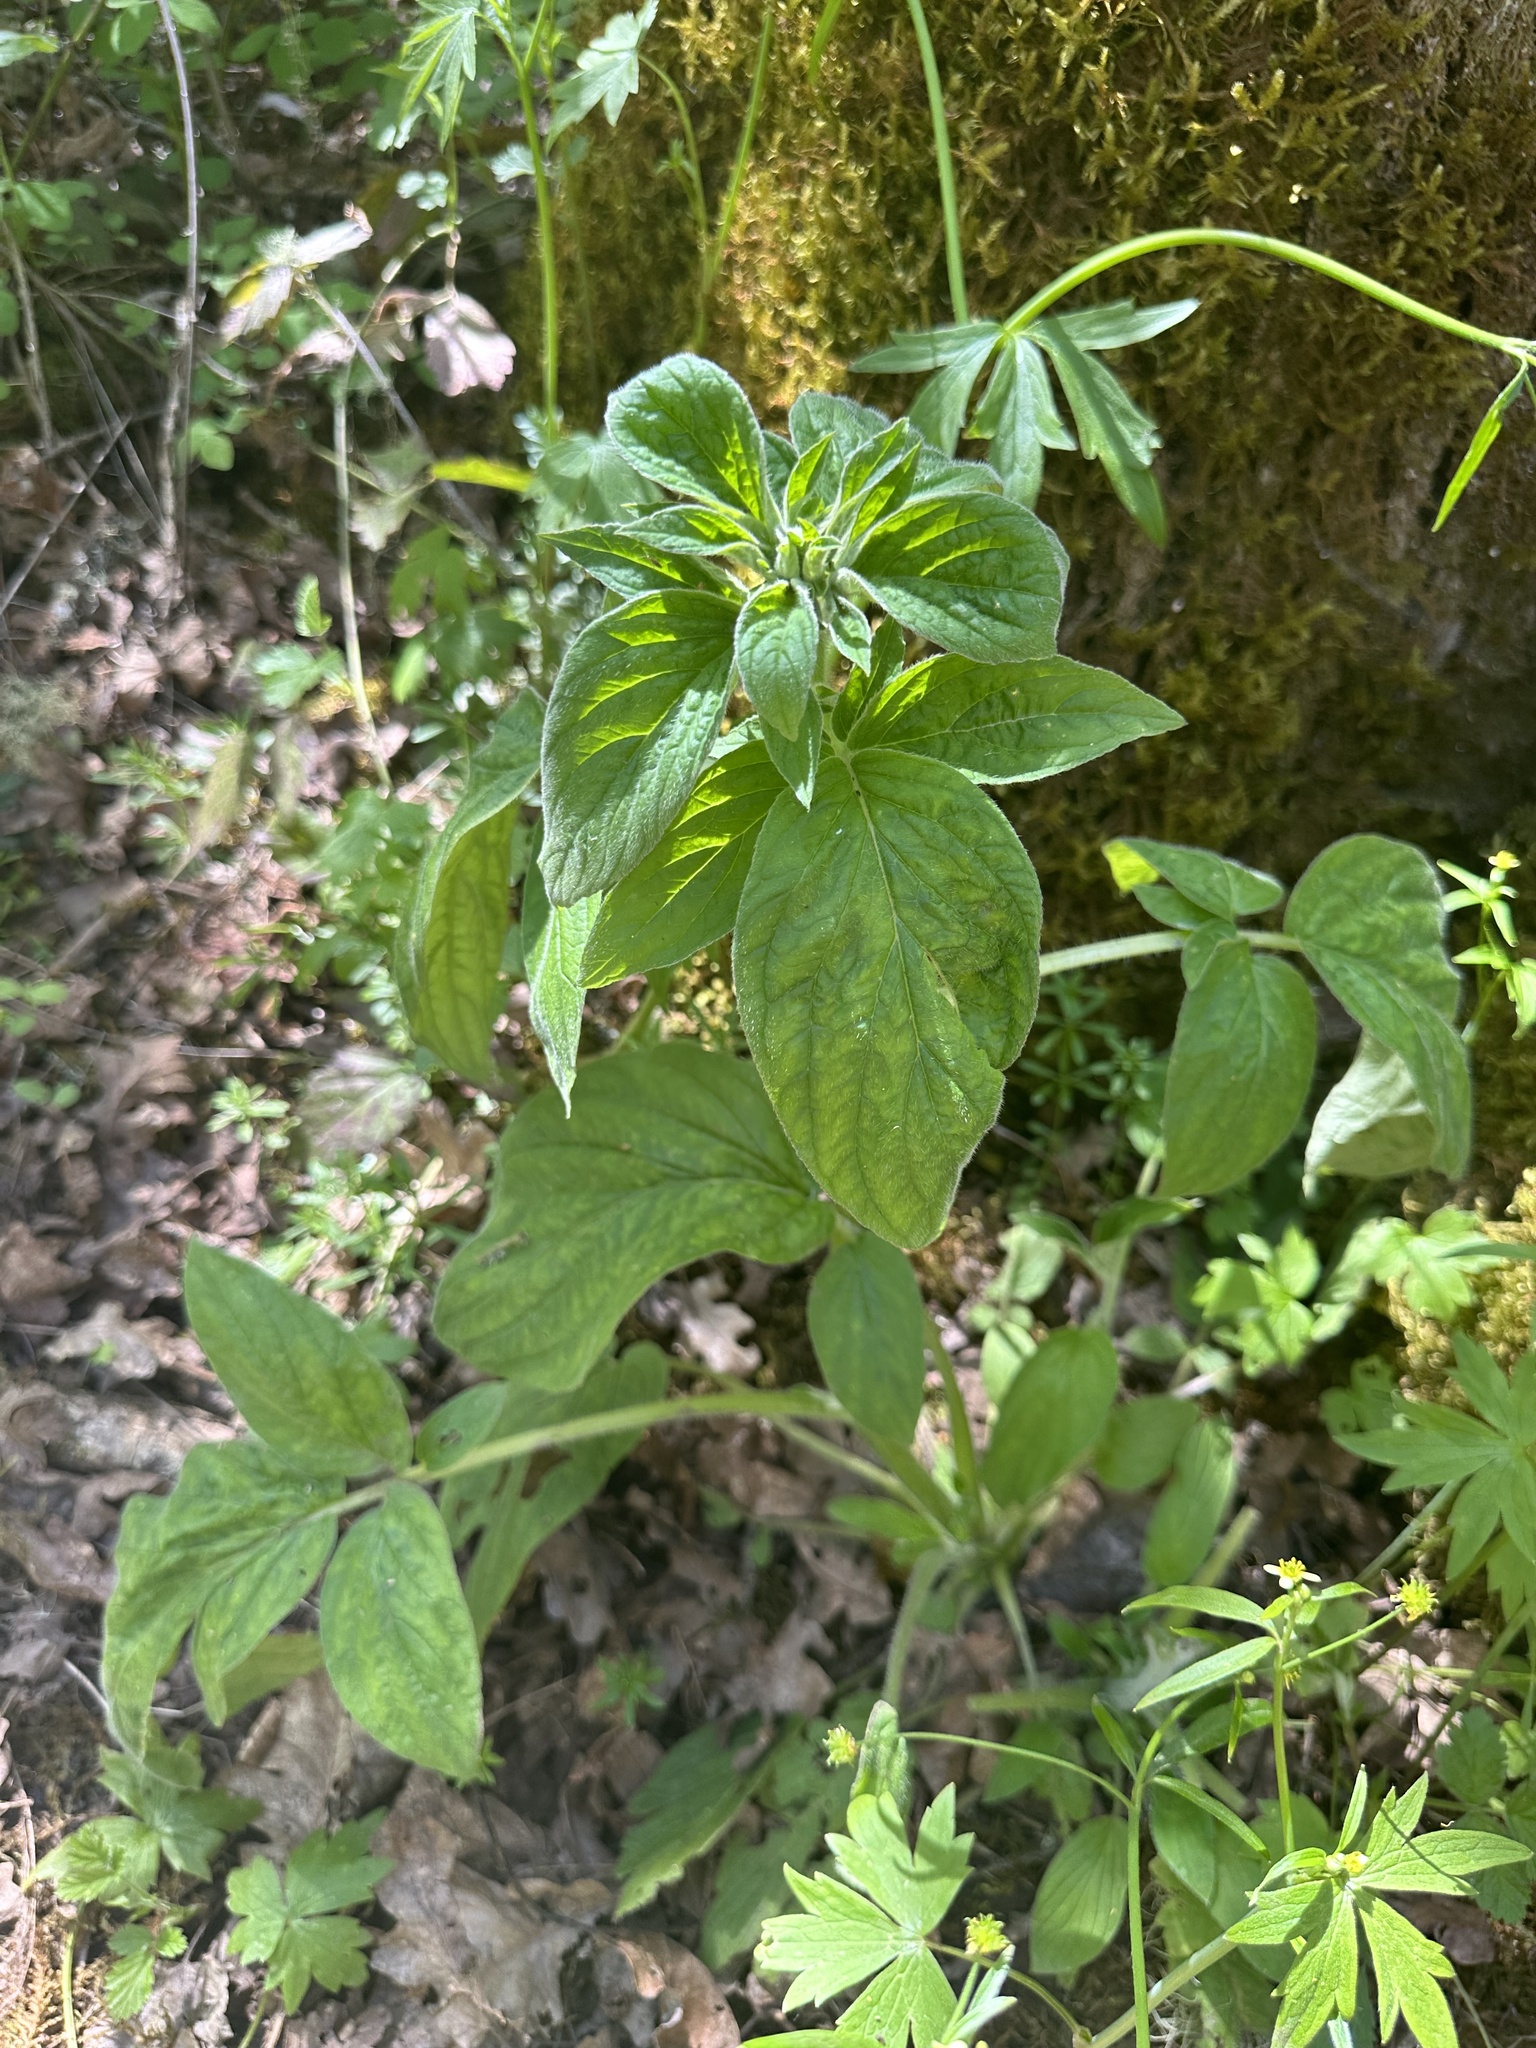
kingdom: Plantae
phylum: Tracheophyta
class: Magnoliopsida
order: Boraginales
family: Hydrophyllaceae
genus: Phacelia
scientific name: Phacelia nemoralis
